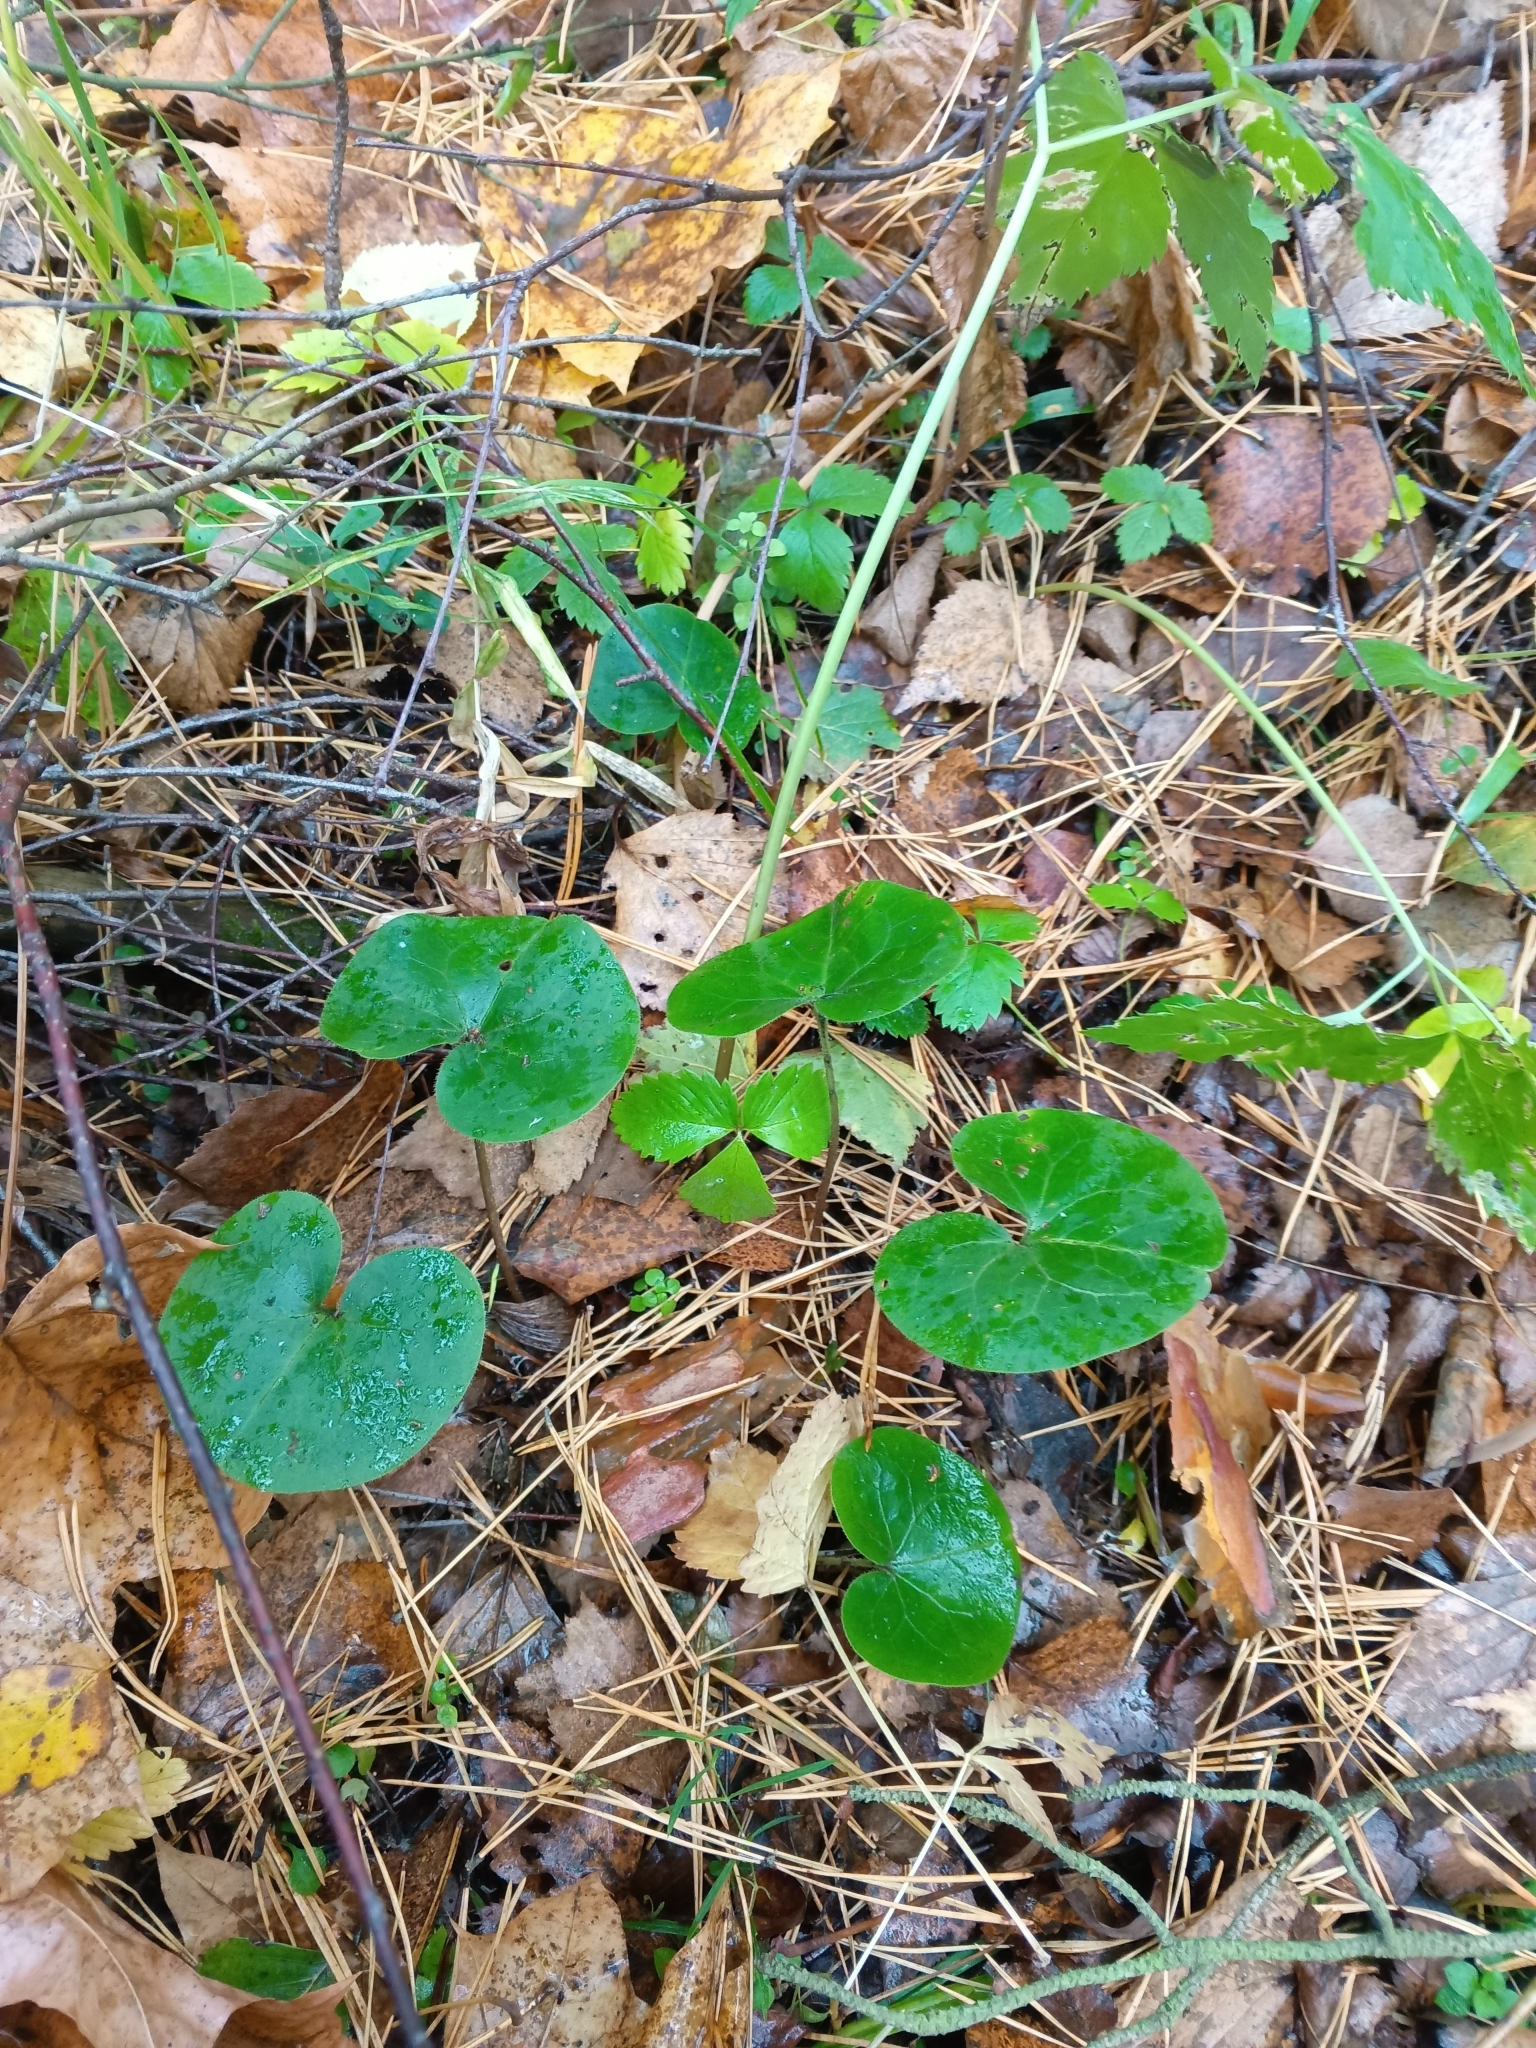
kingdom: Plantae
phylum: Tracheophyta
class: Magnoliopsida
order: Piperales
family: Aristolochiaceae
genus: Asarum
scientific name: Asarum europaeum
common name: Asarabacca
